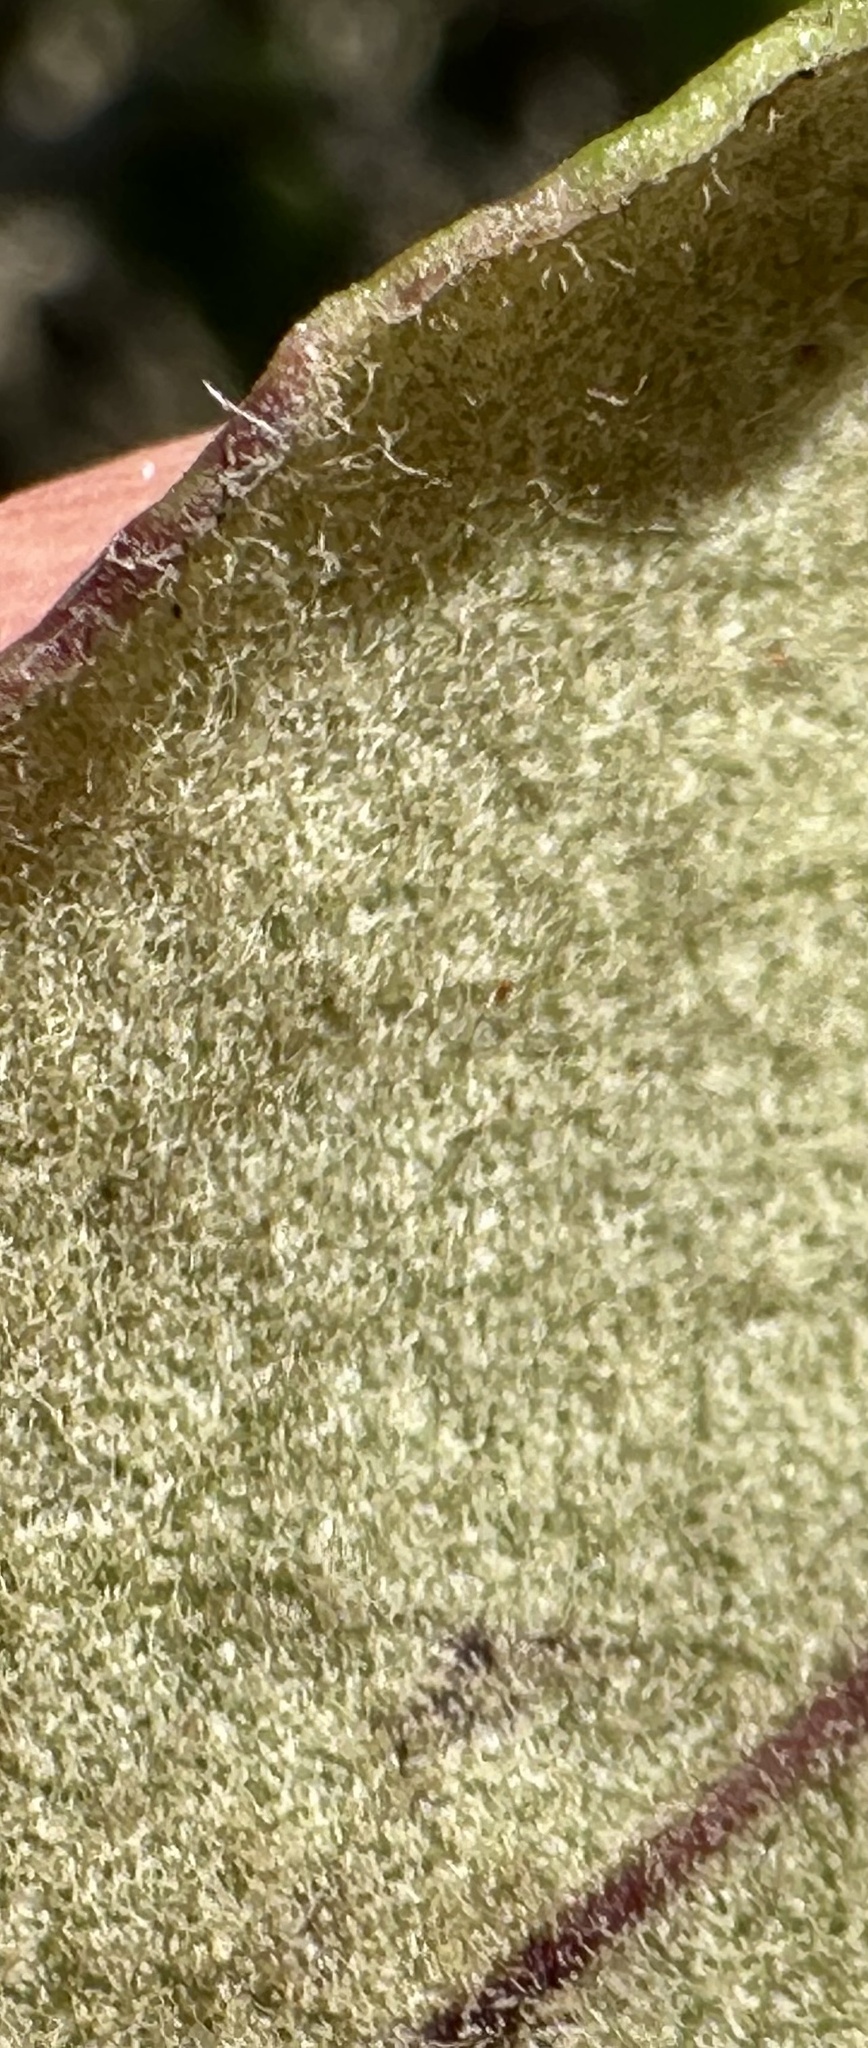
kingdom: Plantae
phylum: Tracheophyta
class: Magnoliopsida
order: Garryales
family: Garryaceae
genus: Garrya
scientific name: Garrya elliptica
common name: Silk-tassel
